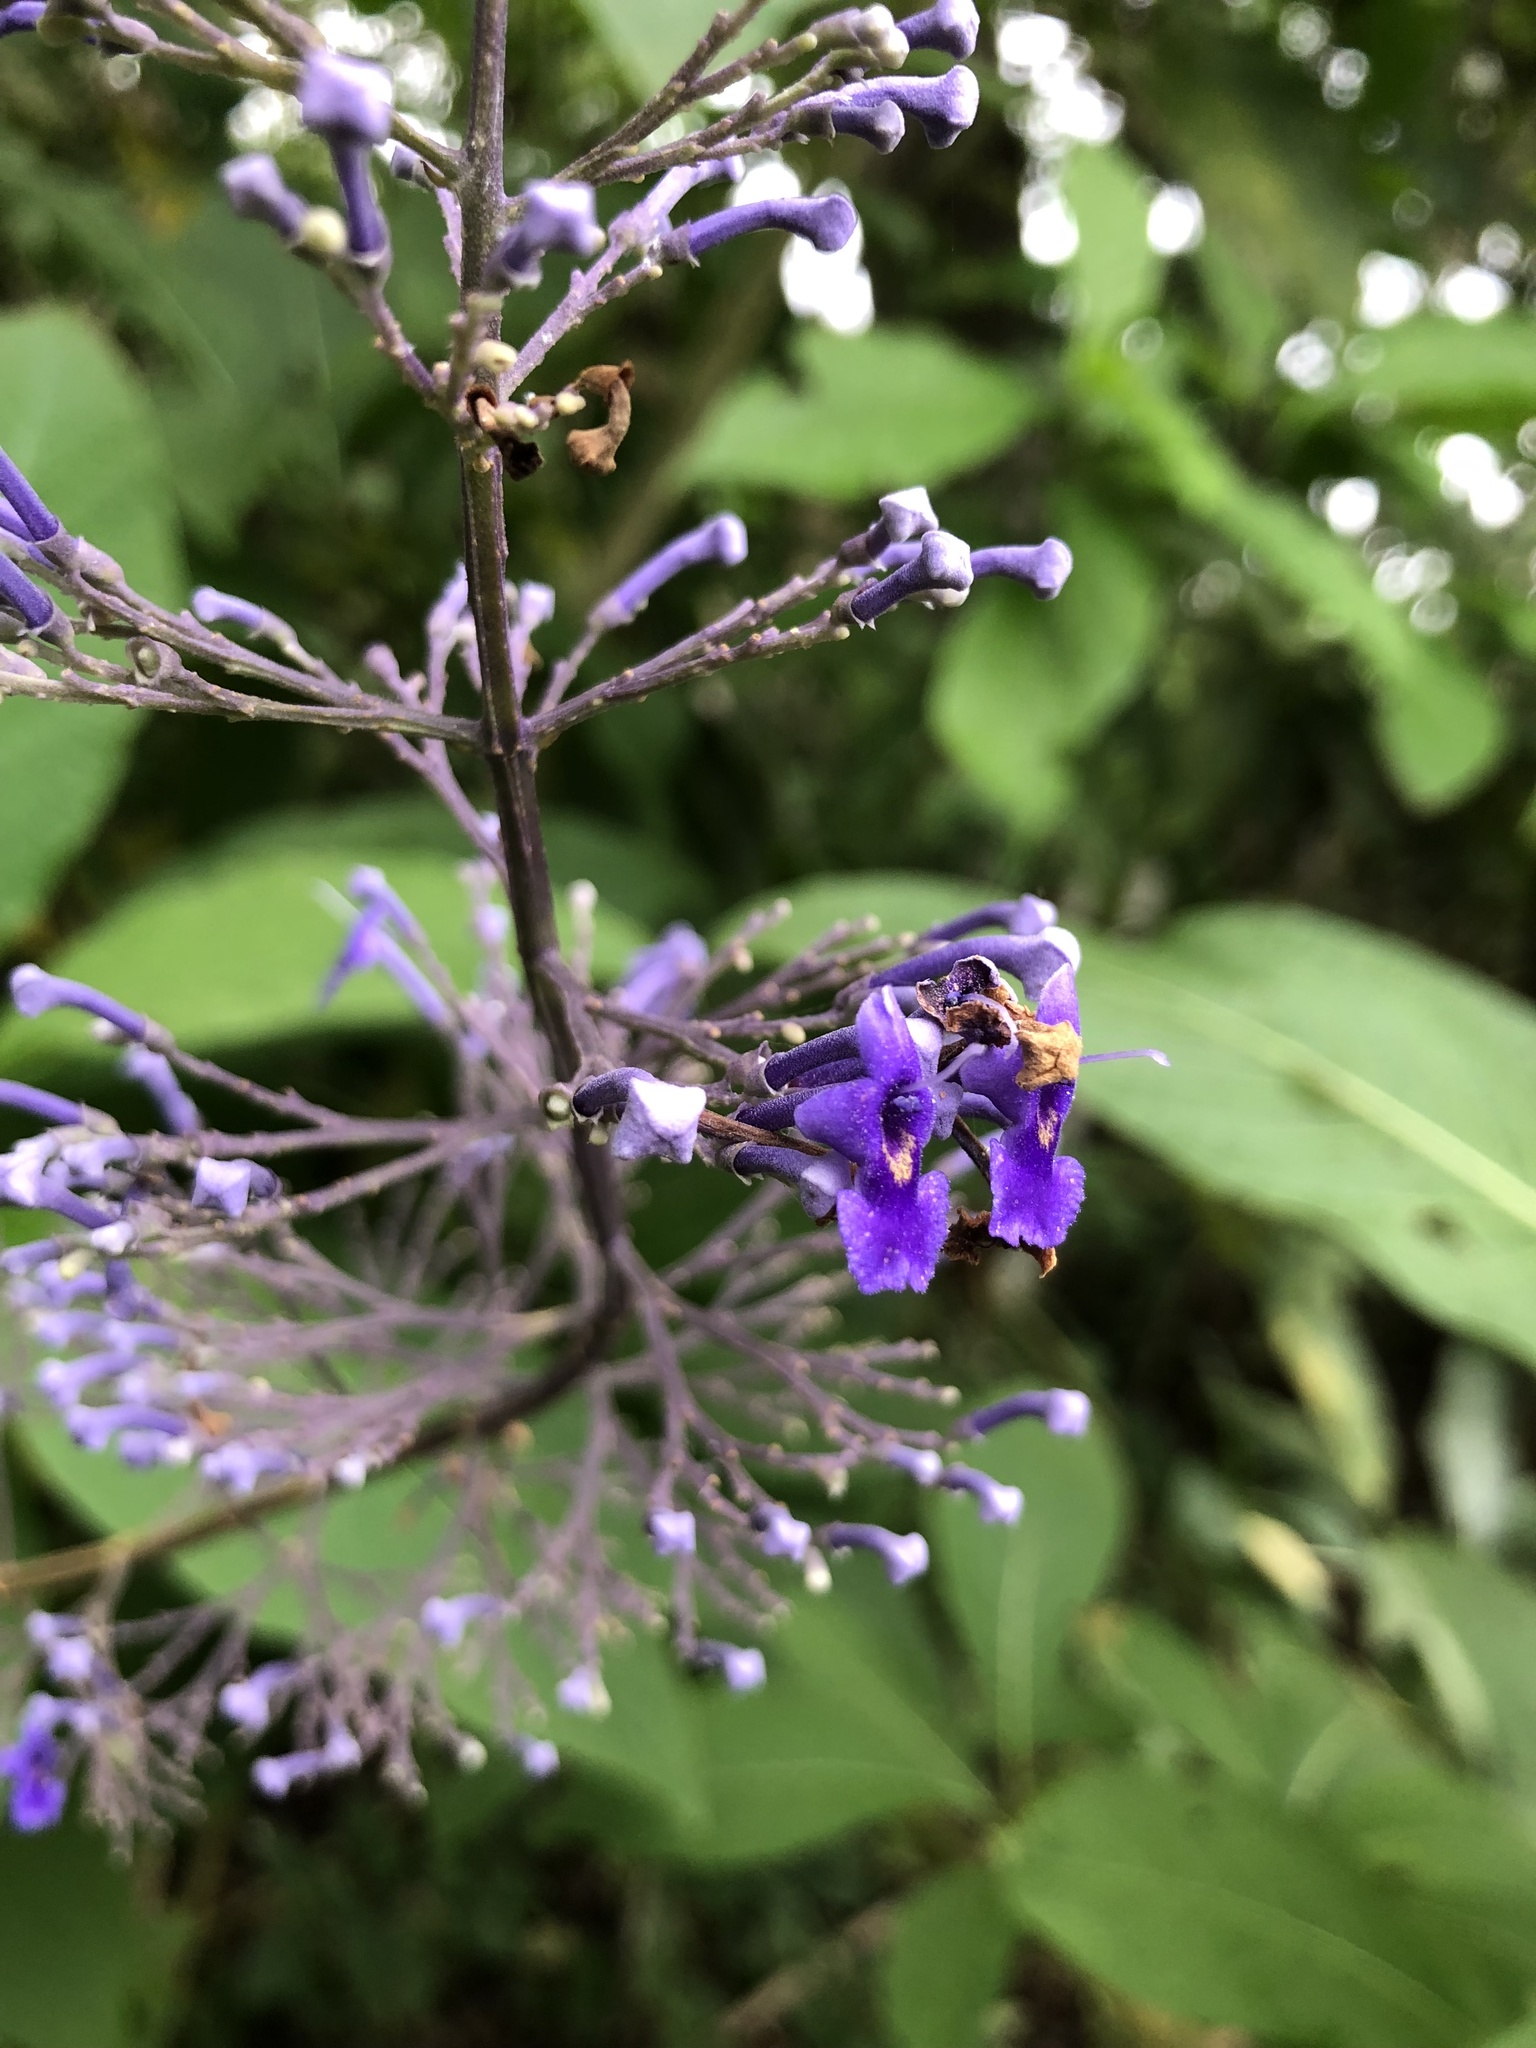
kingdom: Plantae
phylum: Tracheophyta
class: Magnoliopsida
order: Lamiales
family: Lamiaceae
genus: Cornutia
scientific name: Cornutia pyramidata
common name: Azulejo
